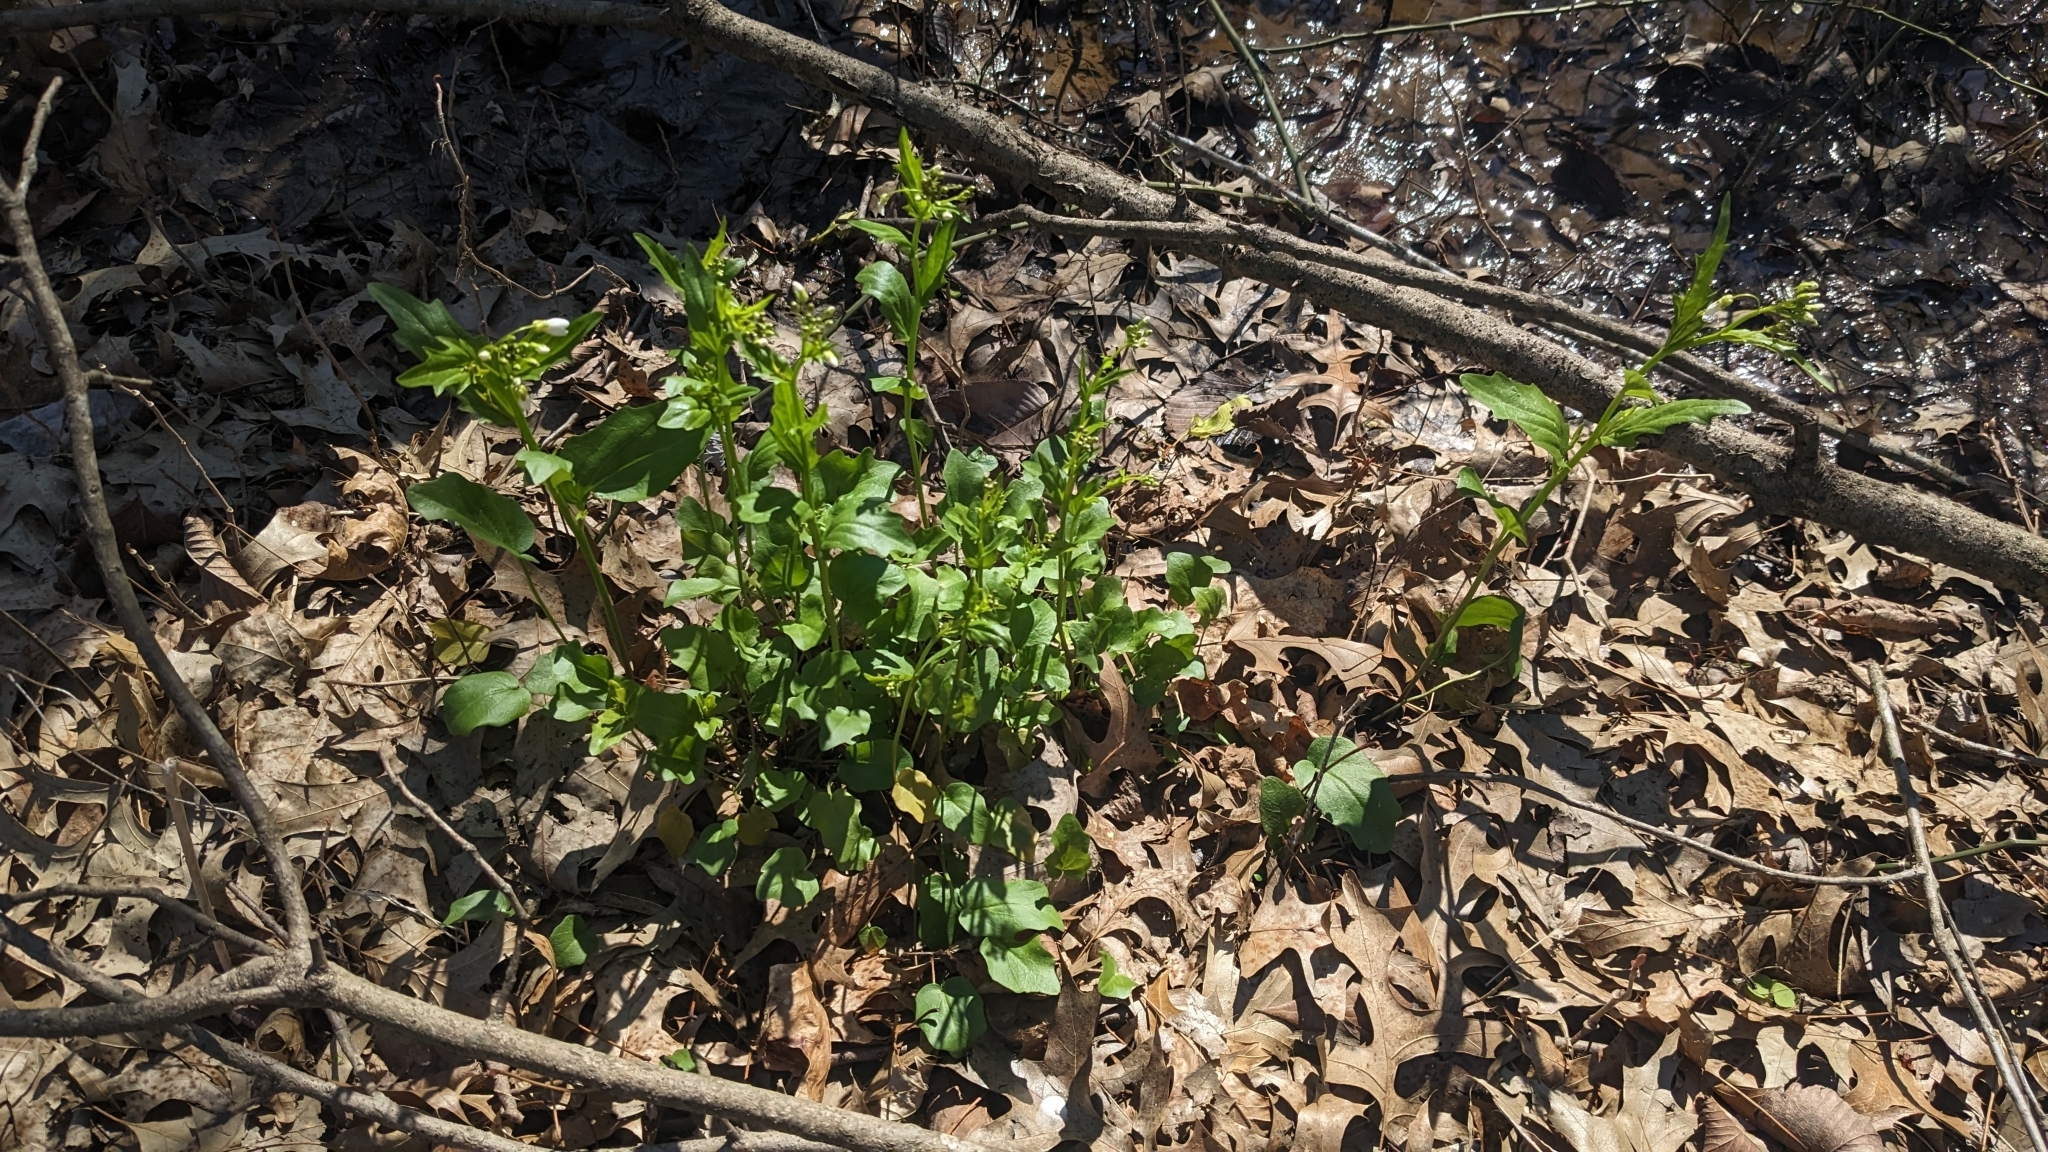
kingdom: Plantae
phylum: Tracheophyta
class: Magnoliopsida
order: Brassicales
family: Brassicaceae
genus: Cardamine
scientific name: Cardamine bulbosa
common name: Spring cress
